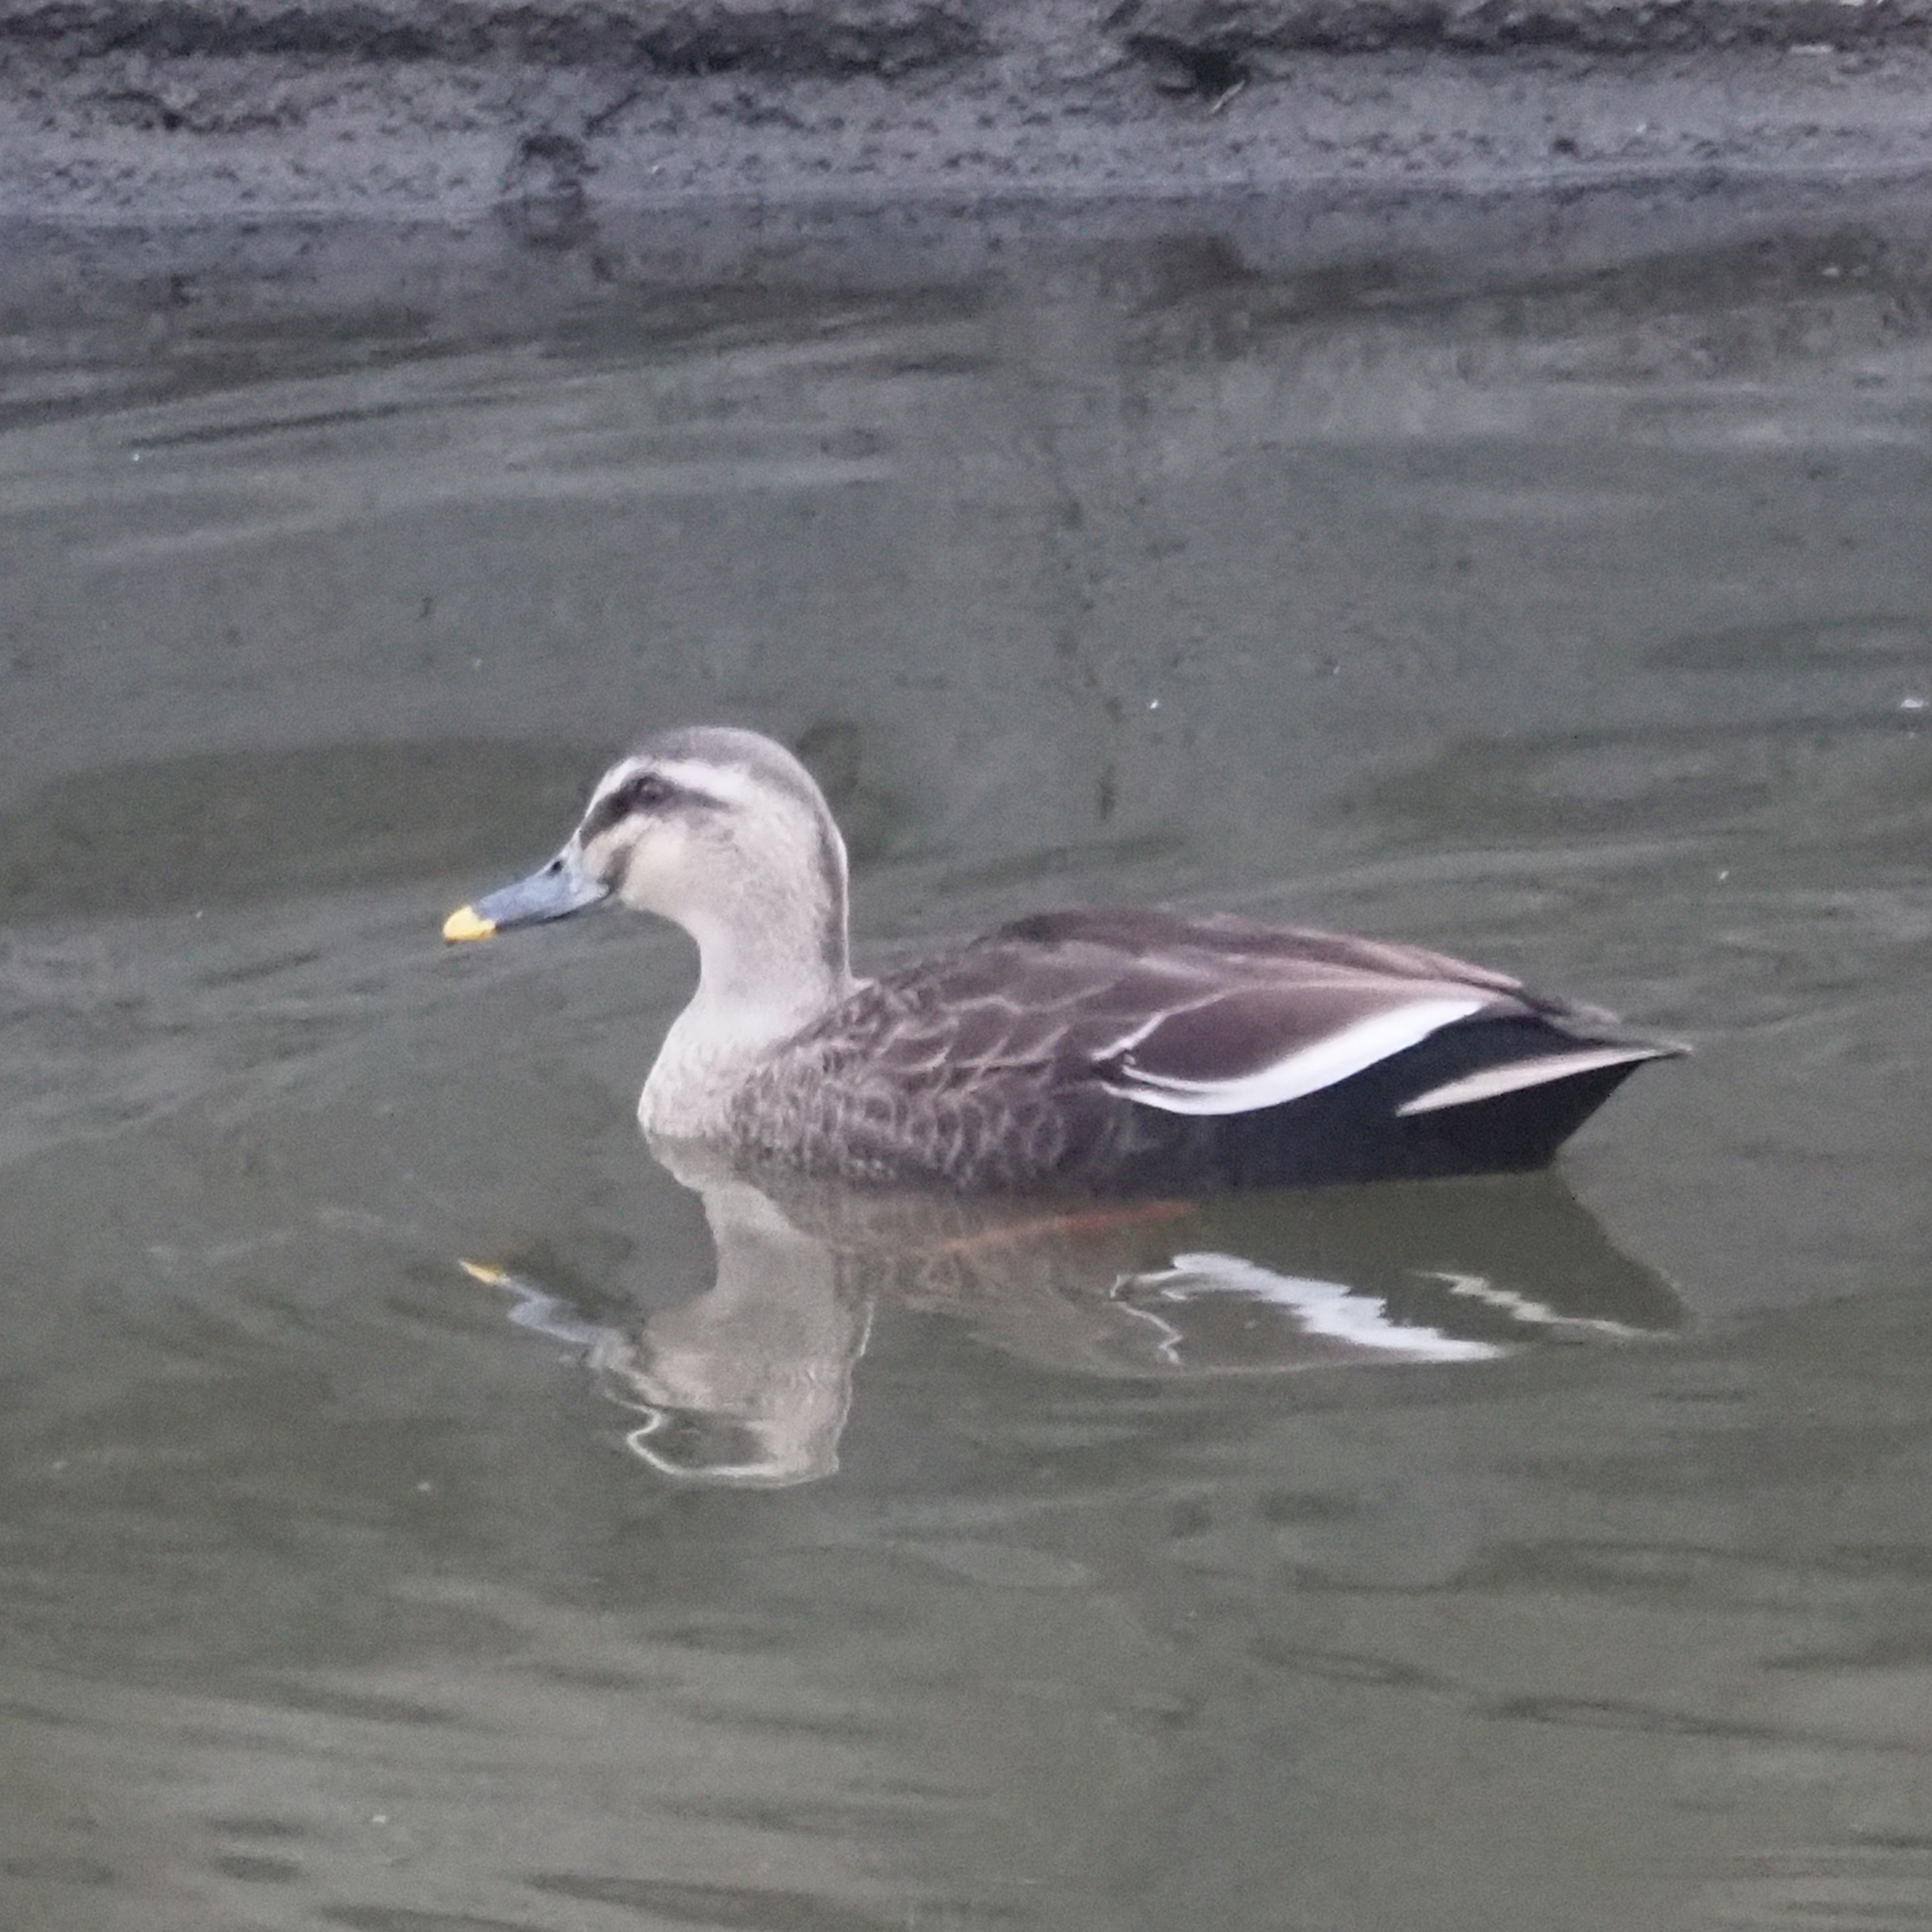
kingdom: Animalia
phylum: Chordata
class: Aves
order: Anseriformes
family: Anatidae
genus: Anas
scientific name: Anas zonorhyncha
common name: Eastern spot-billed duck
